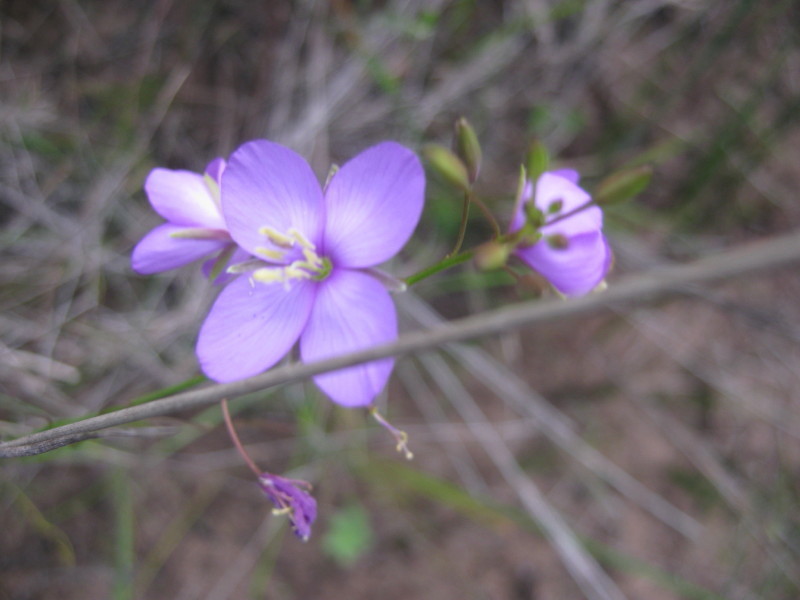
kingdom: Plantae
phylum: Tracheophyta
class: Magnoliopsida
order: Brassicales
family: Brassicaceae
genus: Heliophila
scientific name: Heliophila subulata
